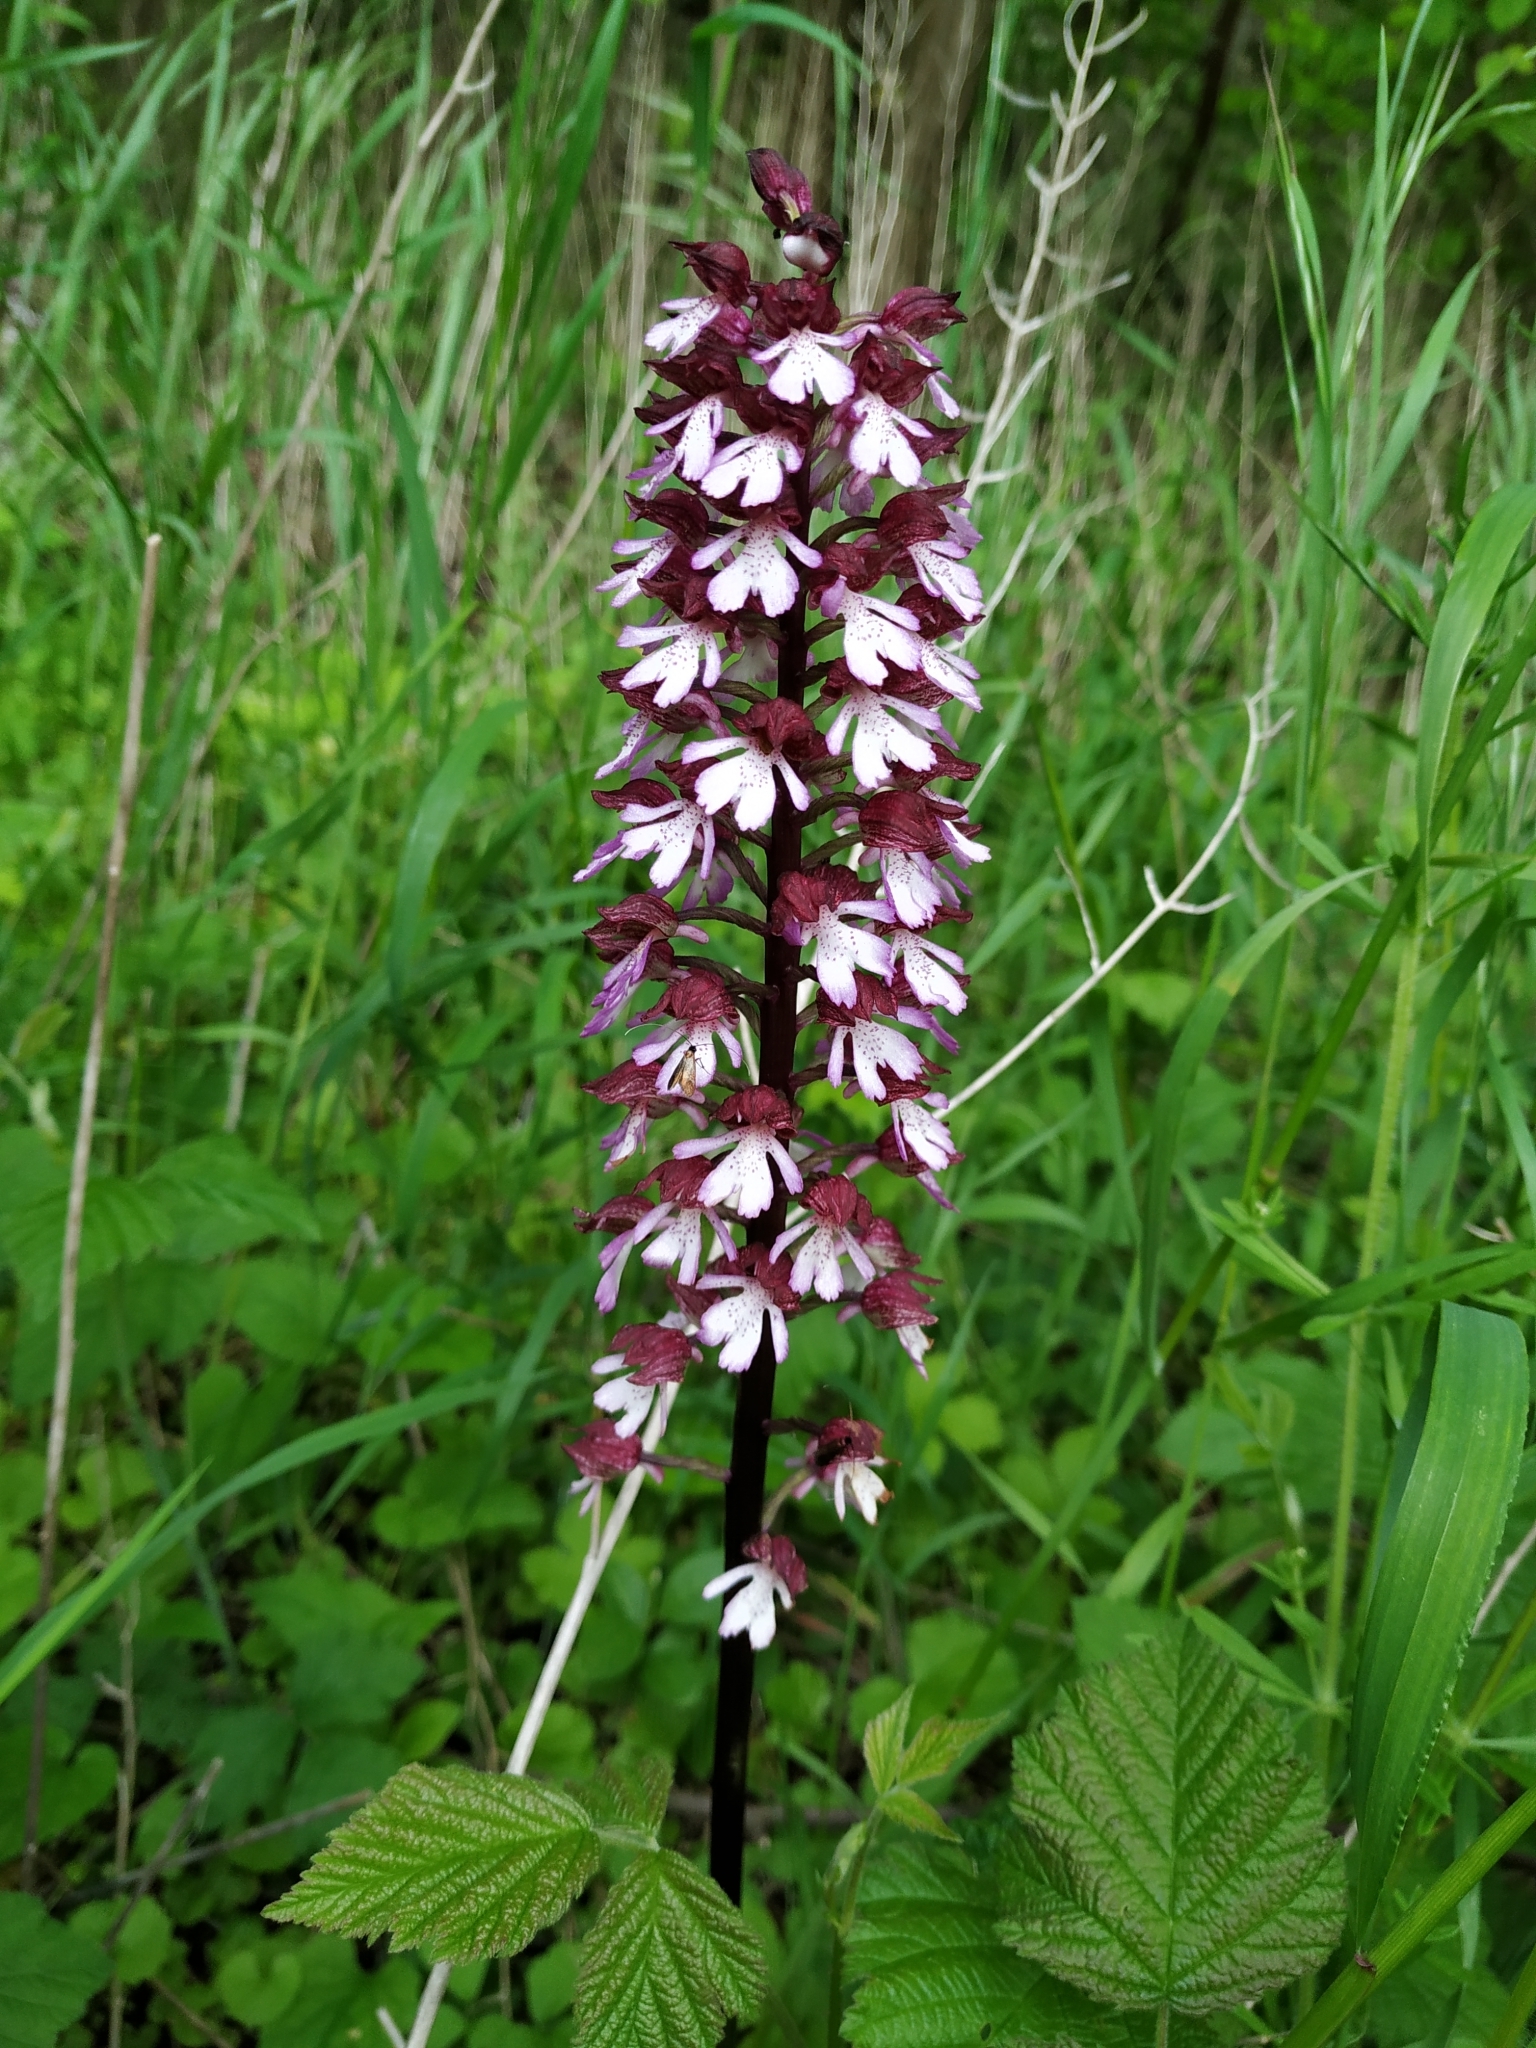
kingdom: Plantae
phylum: Tracheophyta
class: Liliopsida
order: Asparagales
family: Orchidaceae
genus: Orchis
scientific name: Orchis purpurea
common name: Lady orchid
